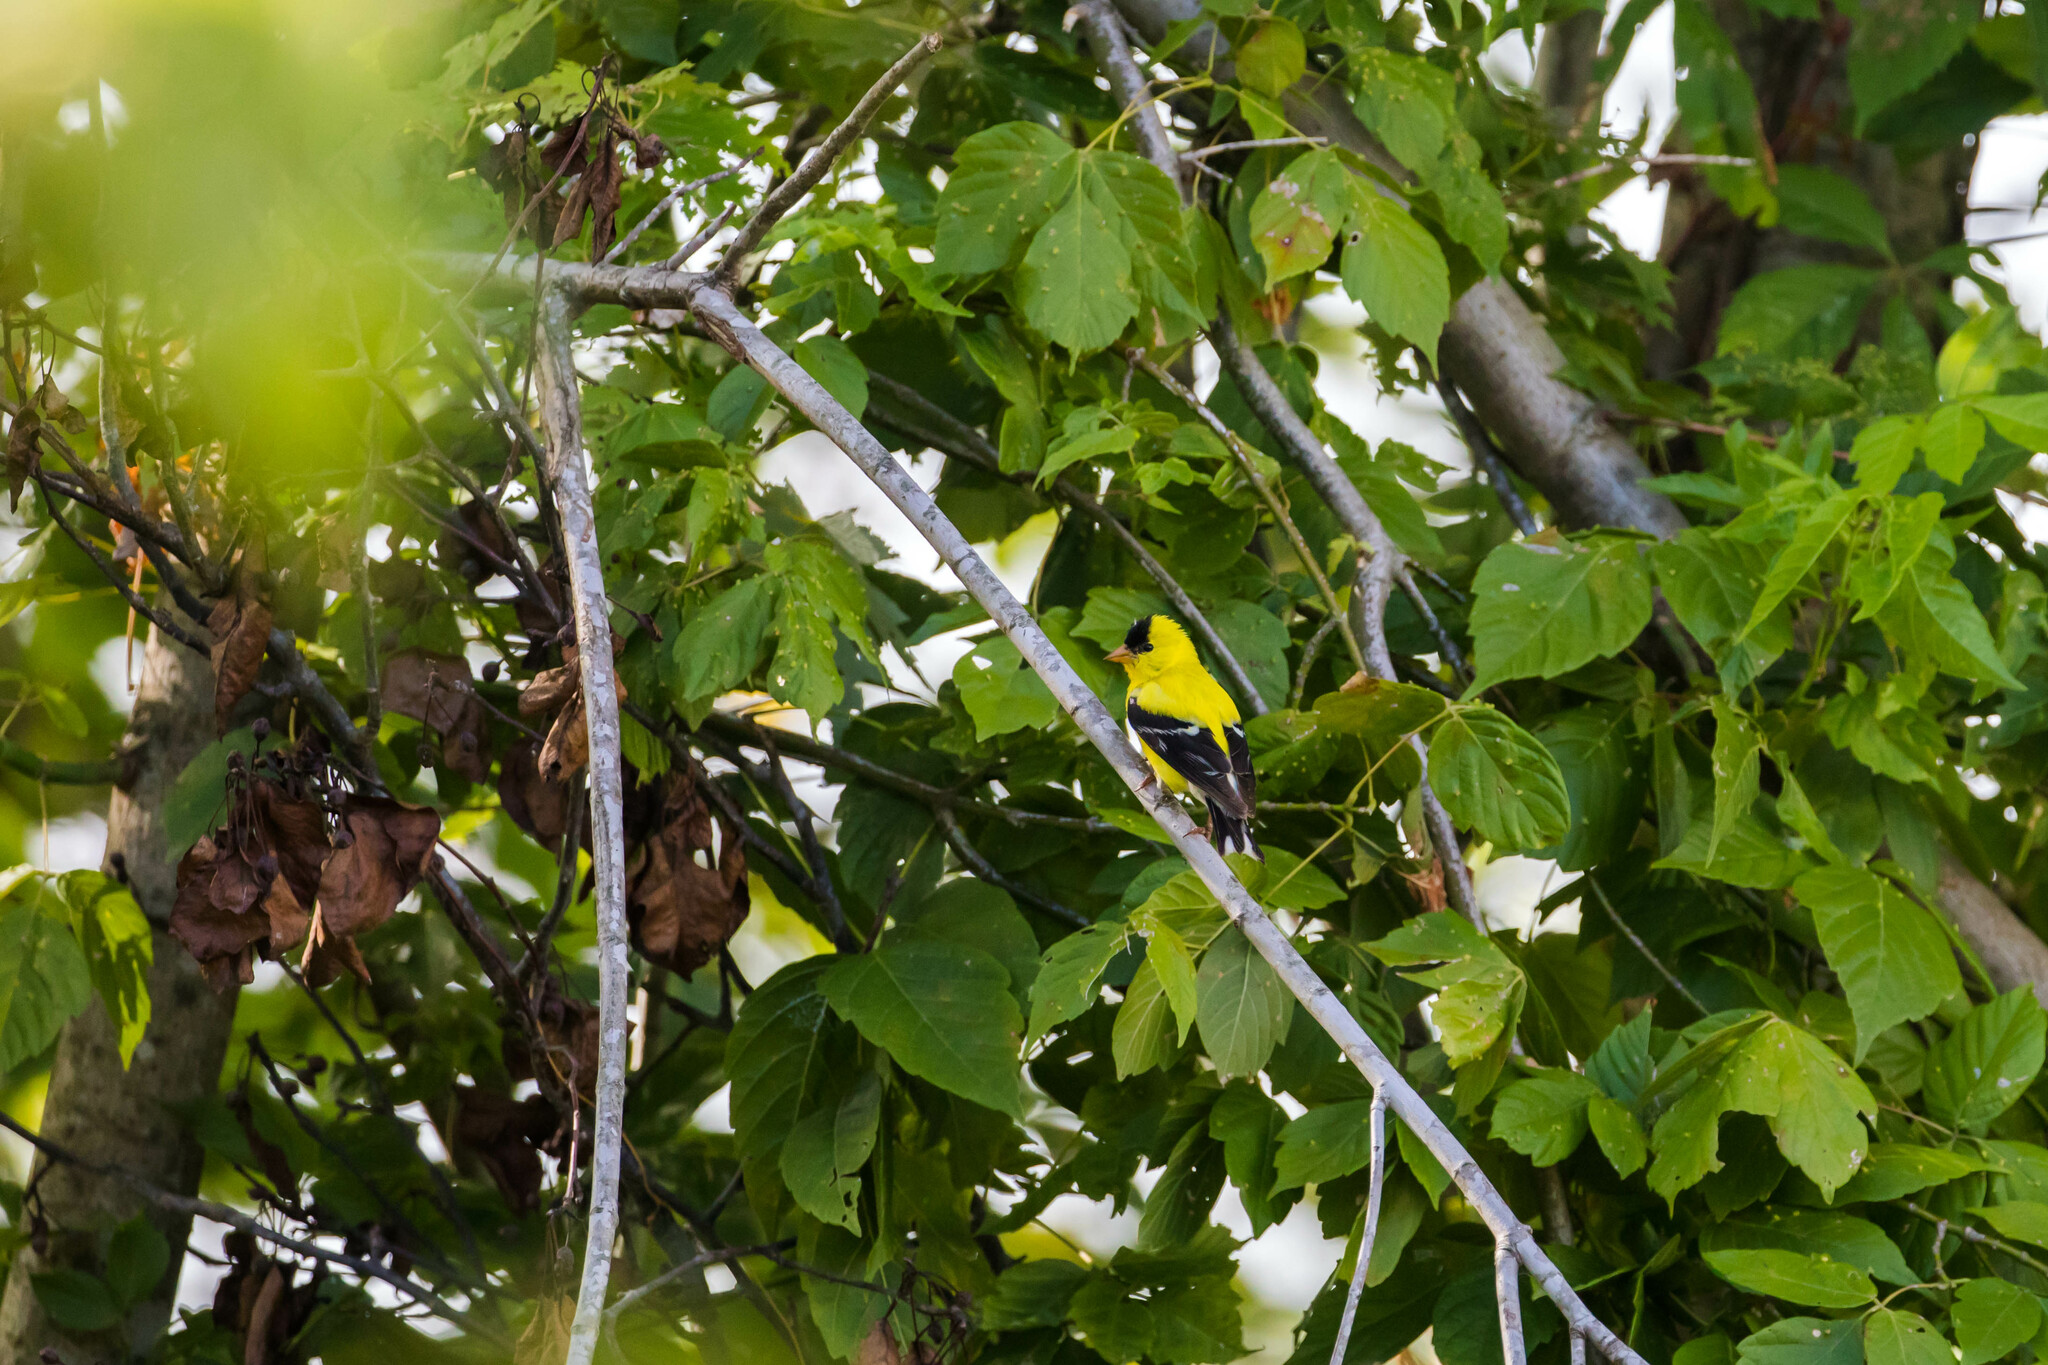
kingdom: Animalia
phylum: Chordata
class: Aves
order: Passeriformes
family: Fringillidae
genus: Spinus
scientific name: Spinus tristis
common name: American goldfinch
